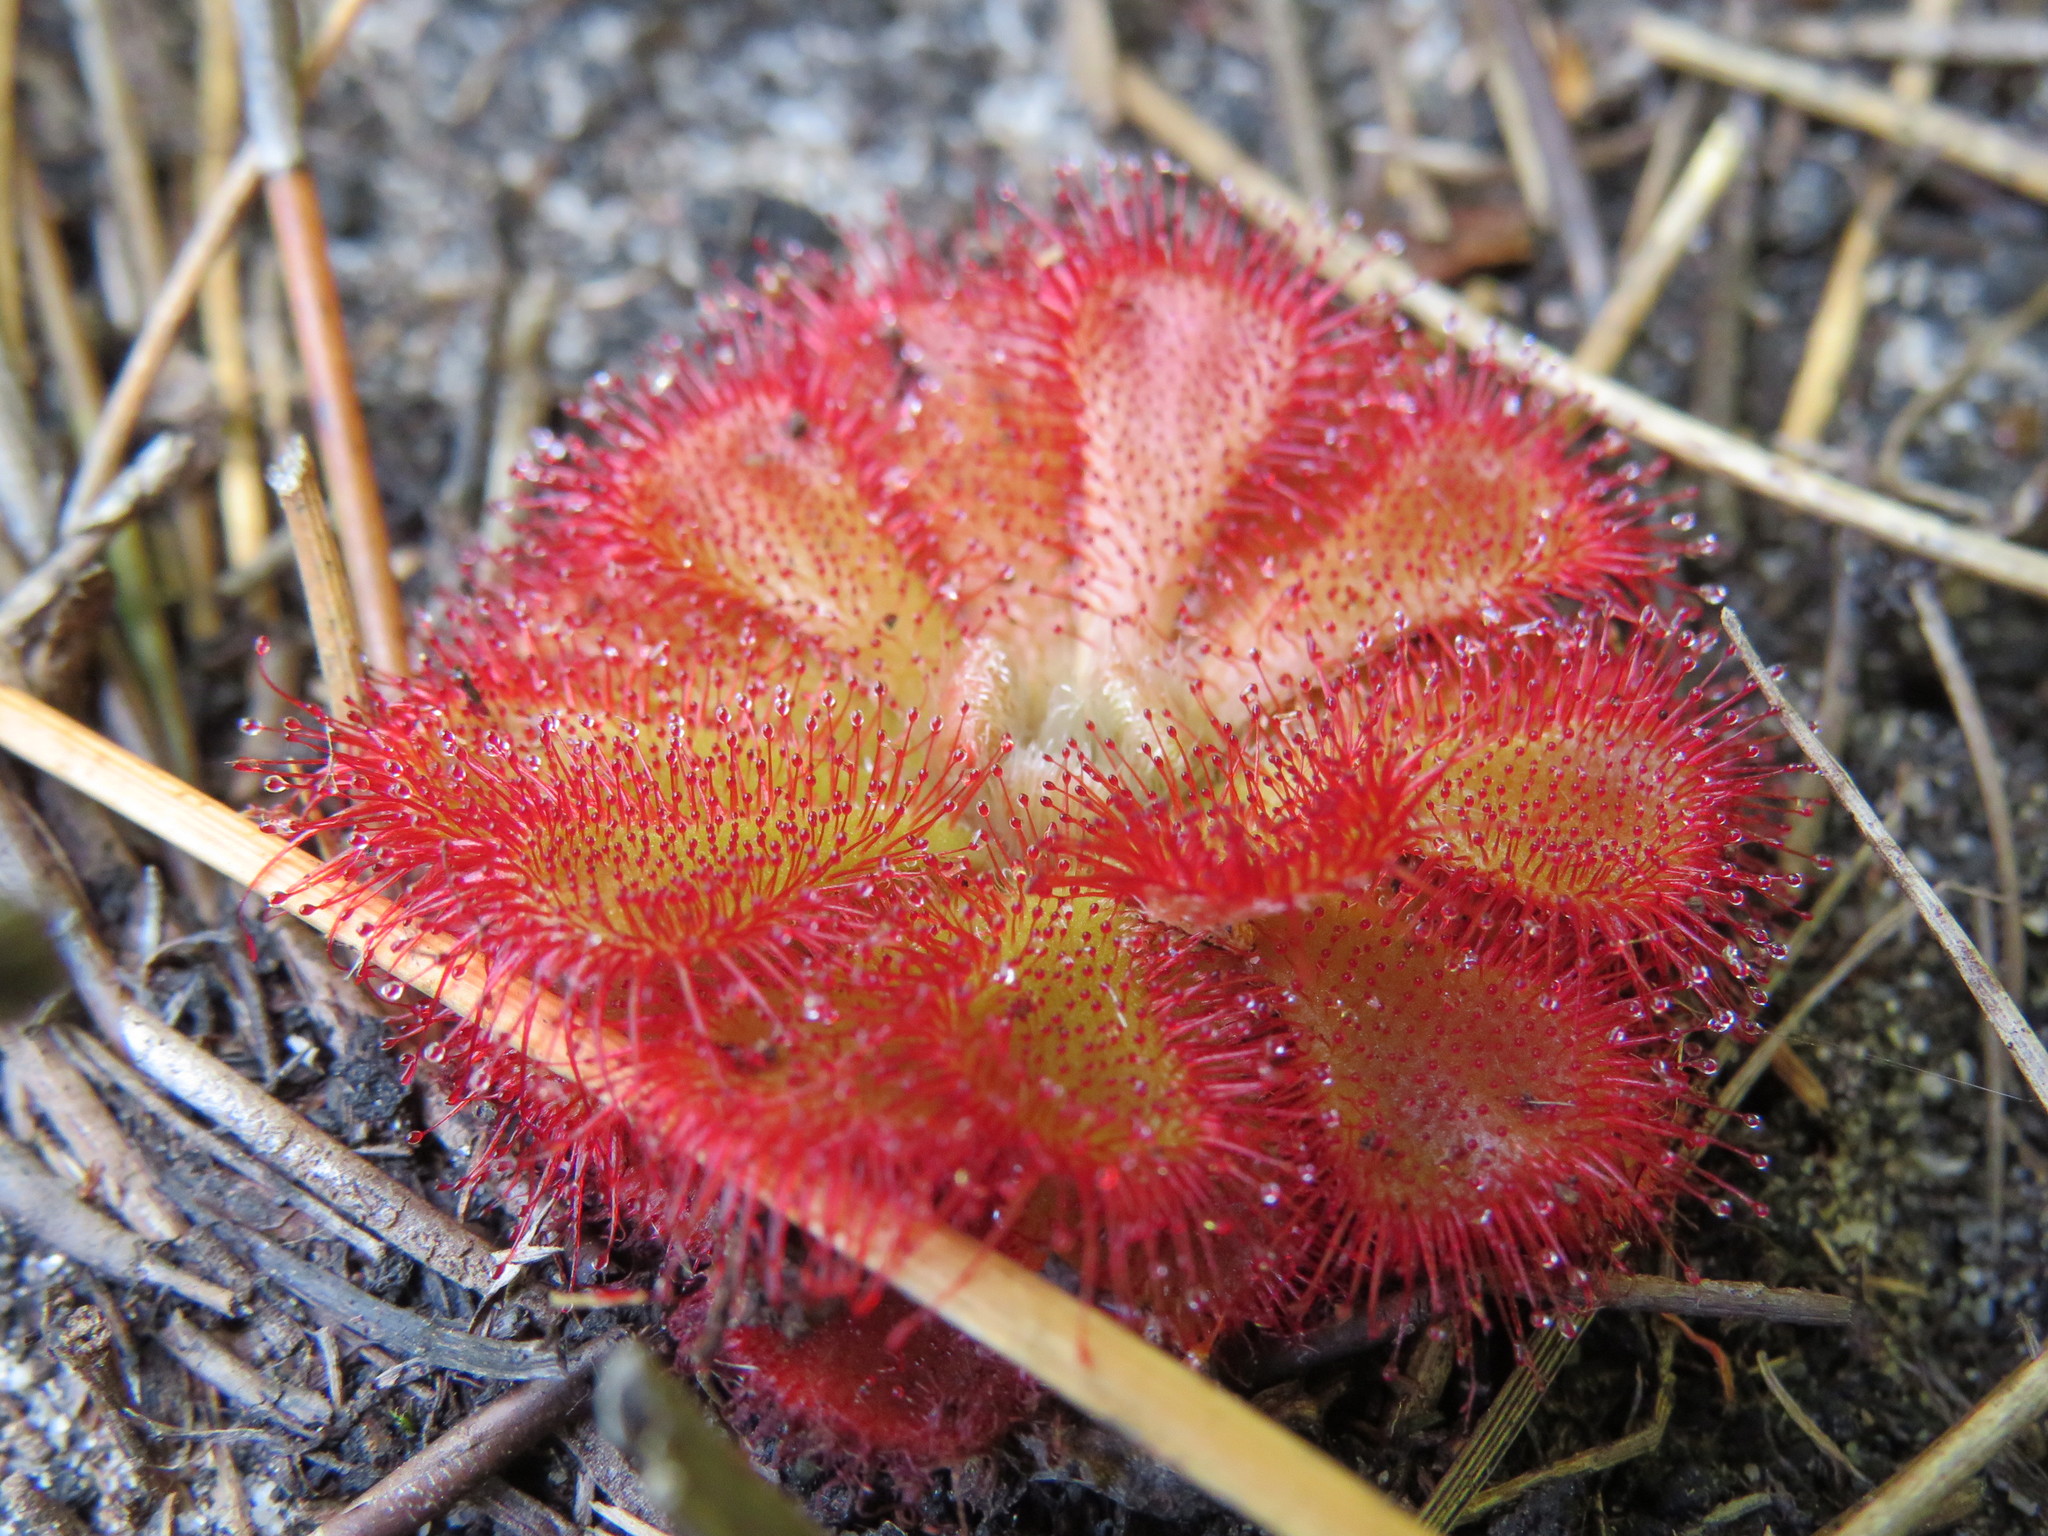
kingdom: Plantae
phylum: Tracheophyta
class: Magnoliopsida
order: Caryophyllales
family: Droseraceae
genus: Drosera
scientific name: Drosera aliciae
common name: Alice sundew
